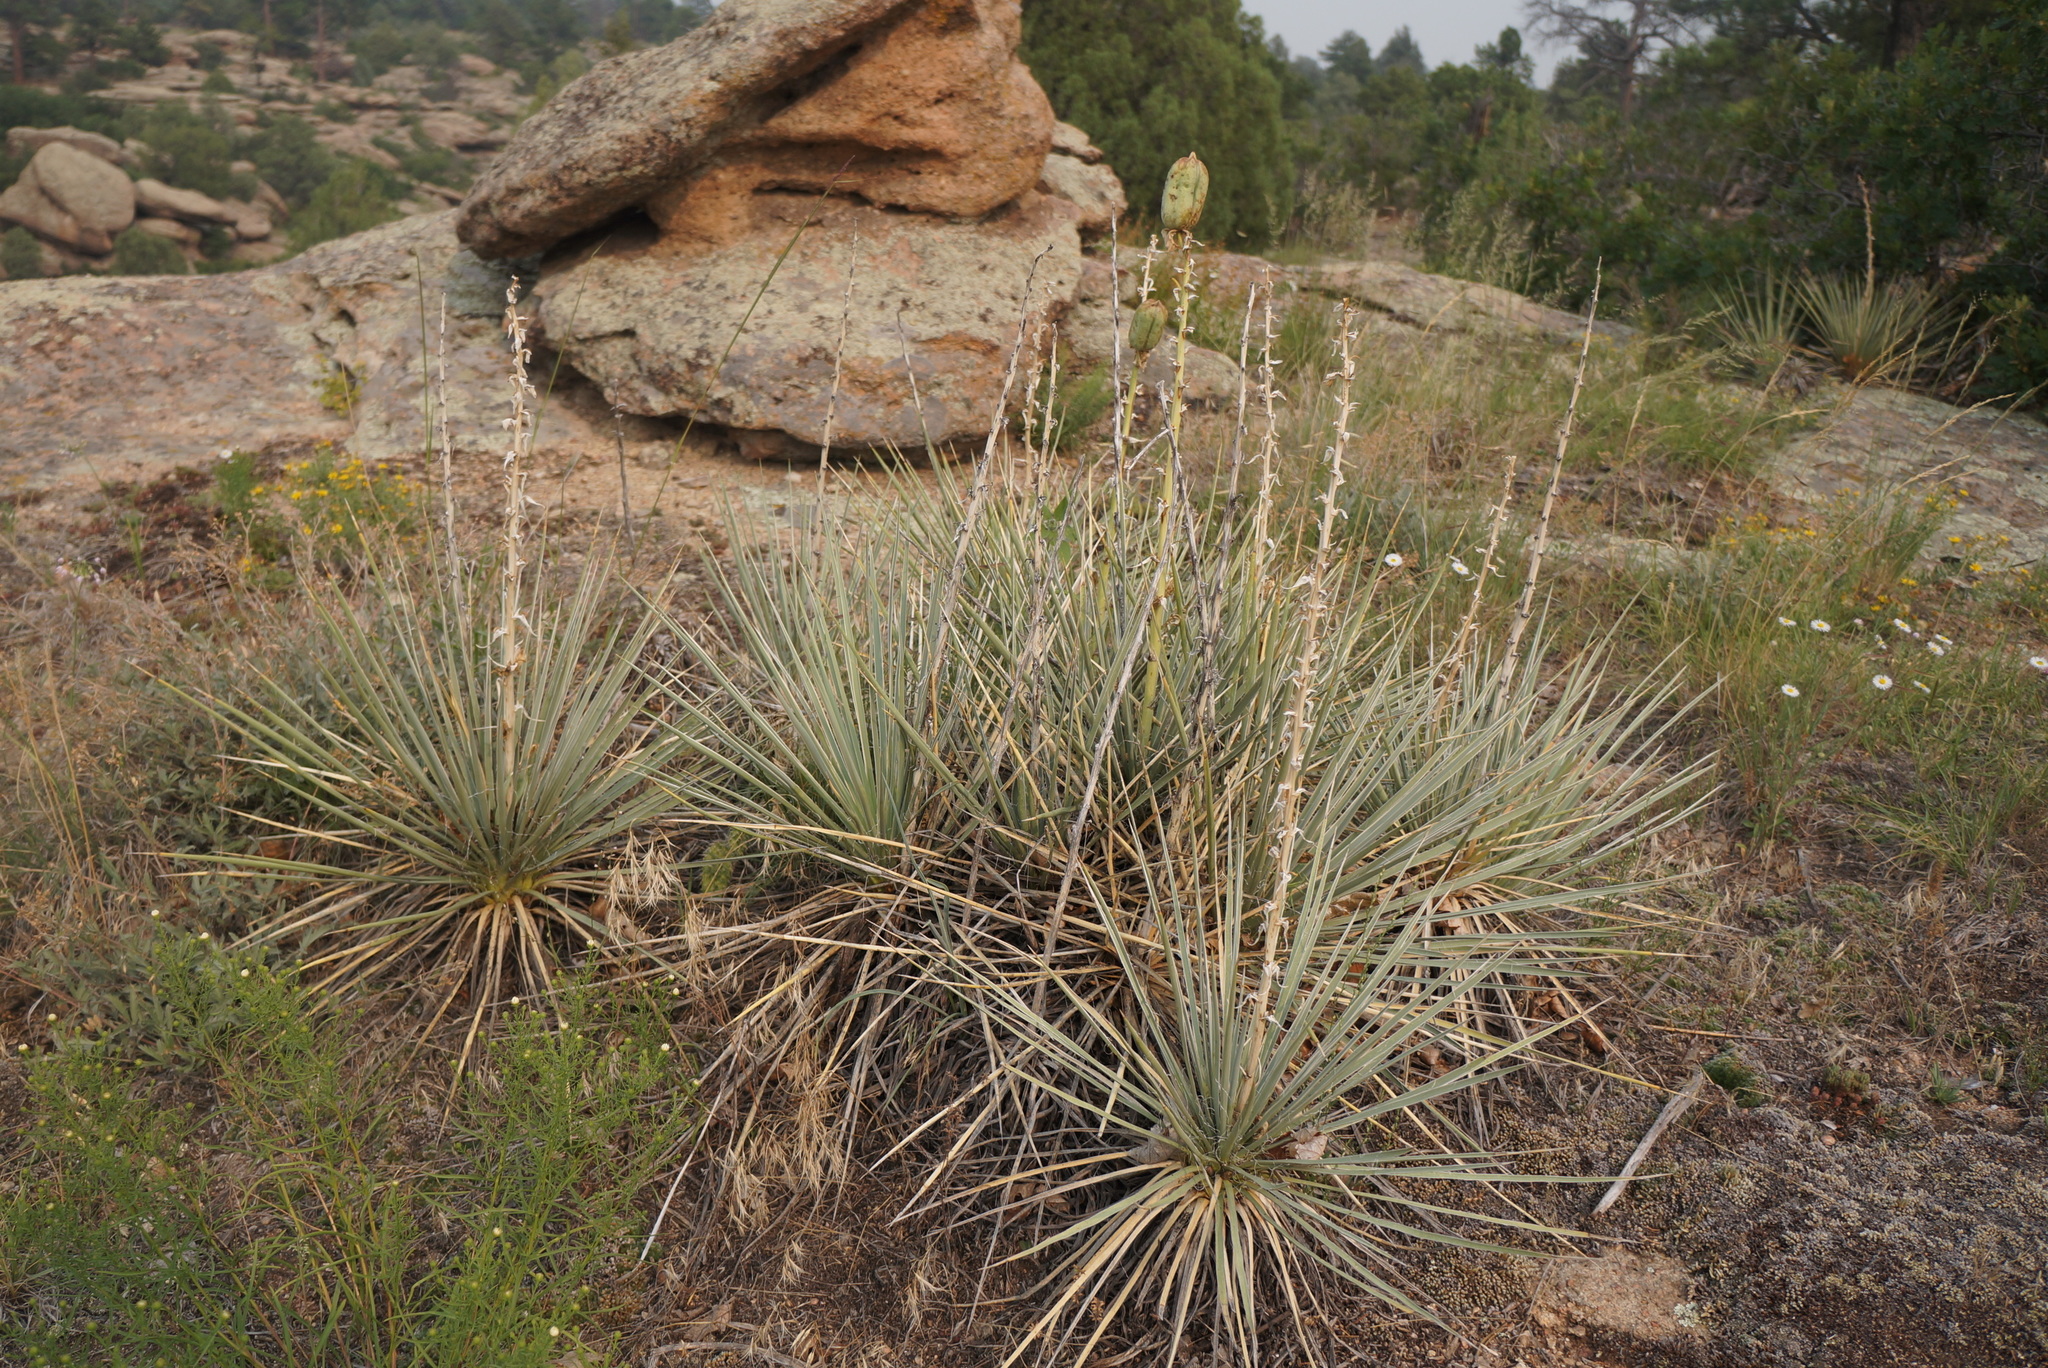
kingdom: Plantae
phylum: Tracheophyta
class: Liliopsida
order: Asparagales
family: Asparagaceae
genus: Yucca
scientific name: Yucca glauca
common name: Great plains yucca
